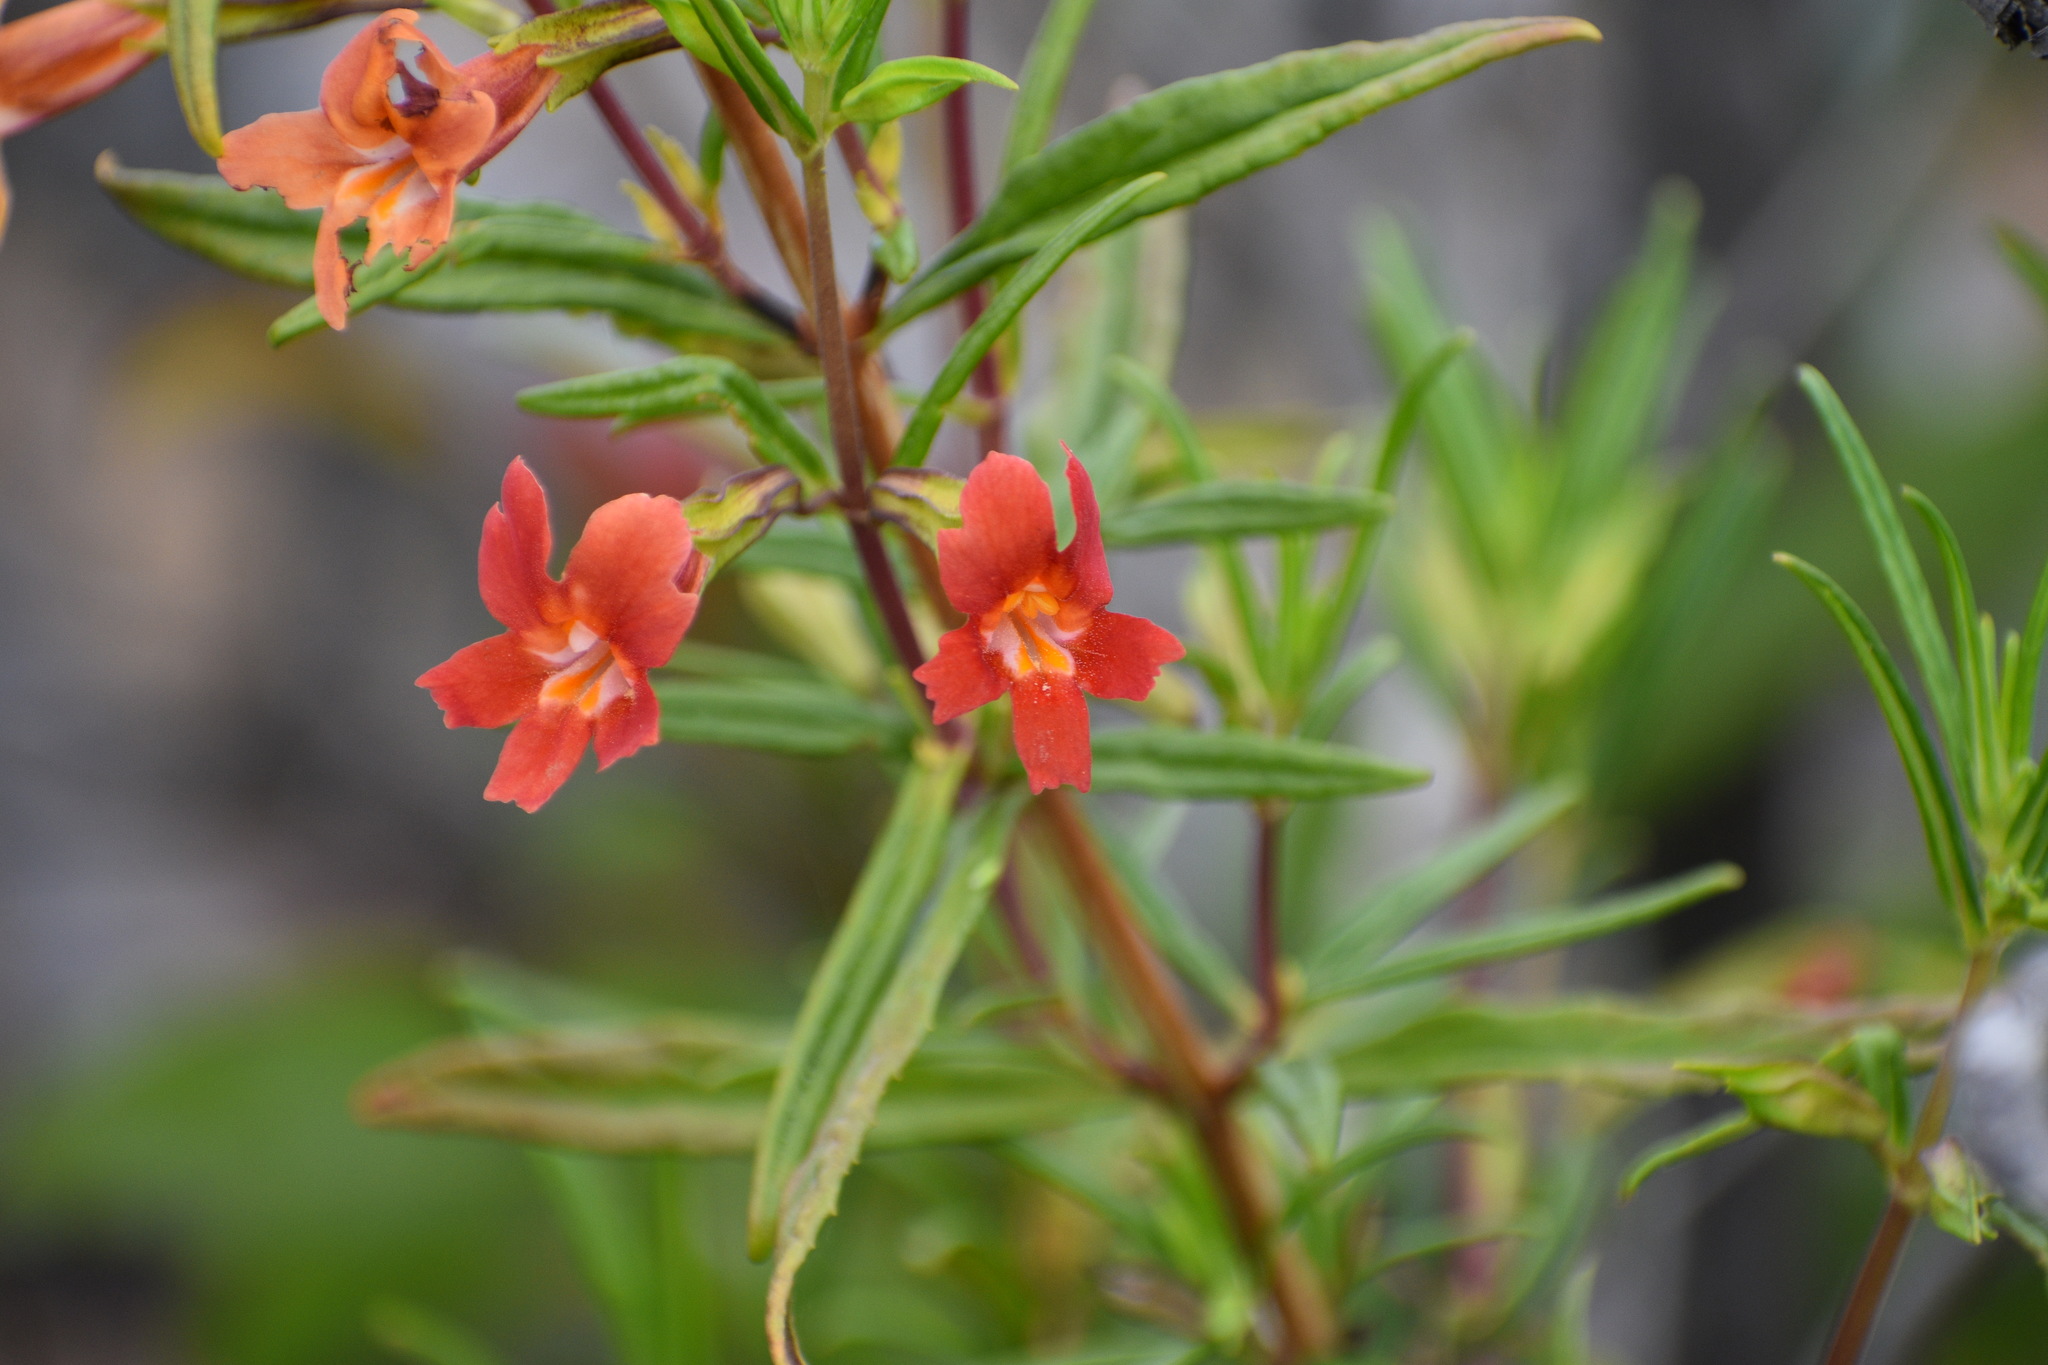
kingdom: Plantae
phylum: Tracheophyta
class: Magnoliopsida
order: Lamiales
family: Phrymaceae
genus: Diplacus
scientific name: Diplacus australis
